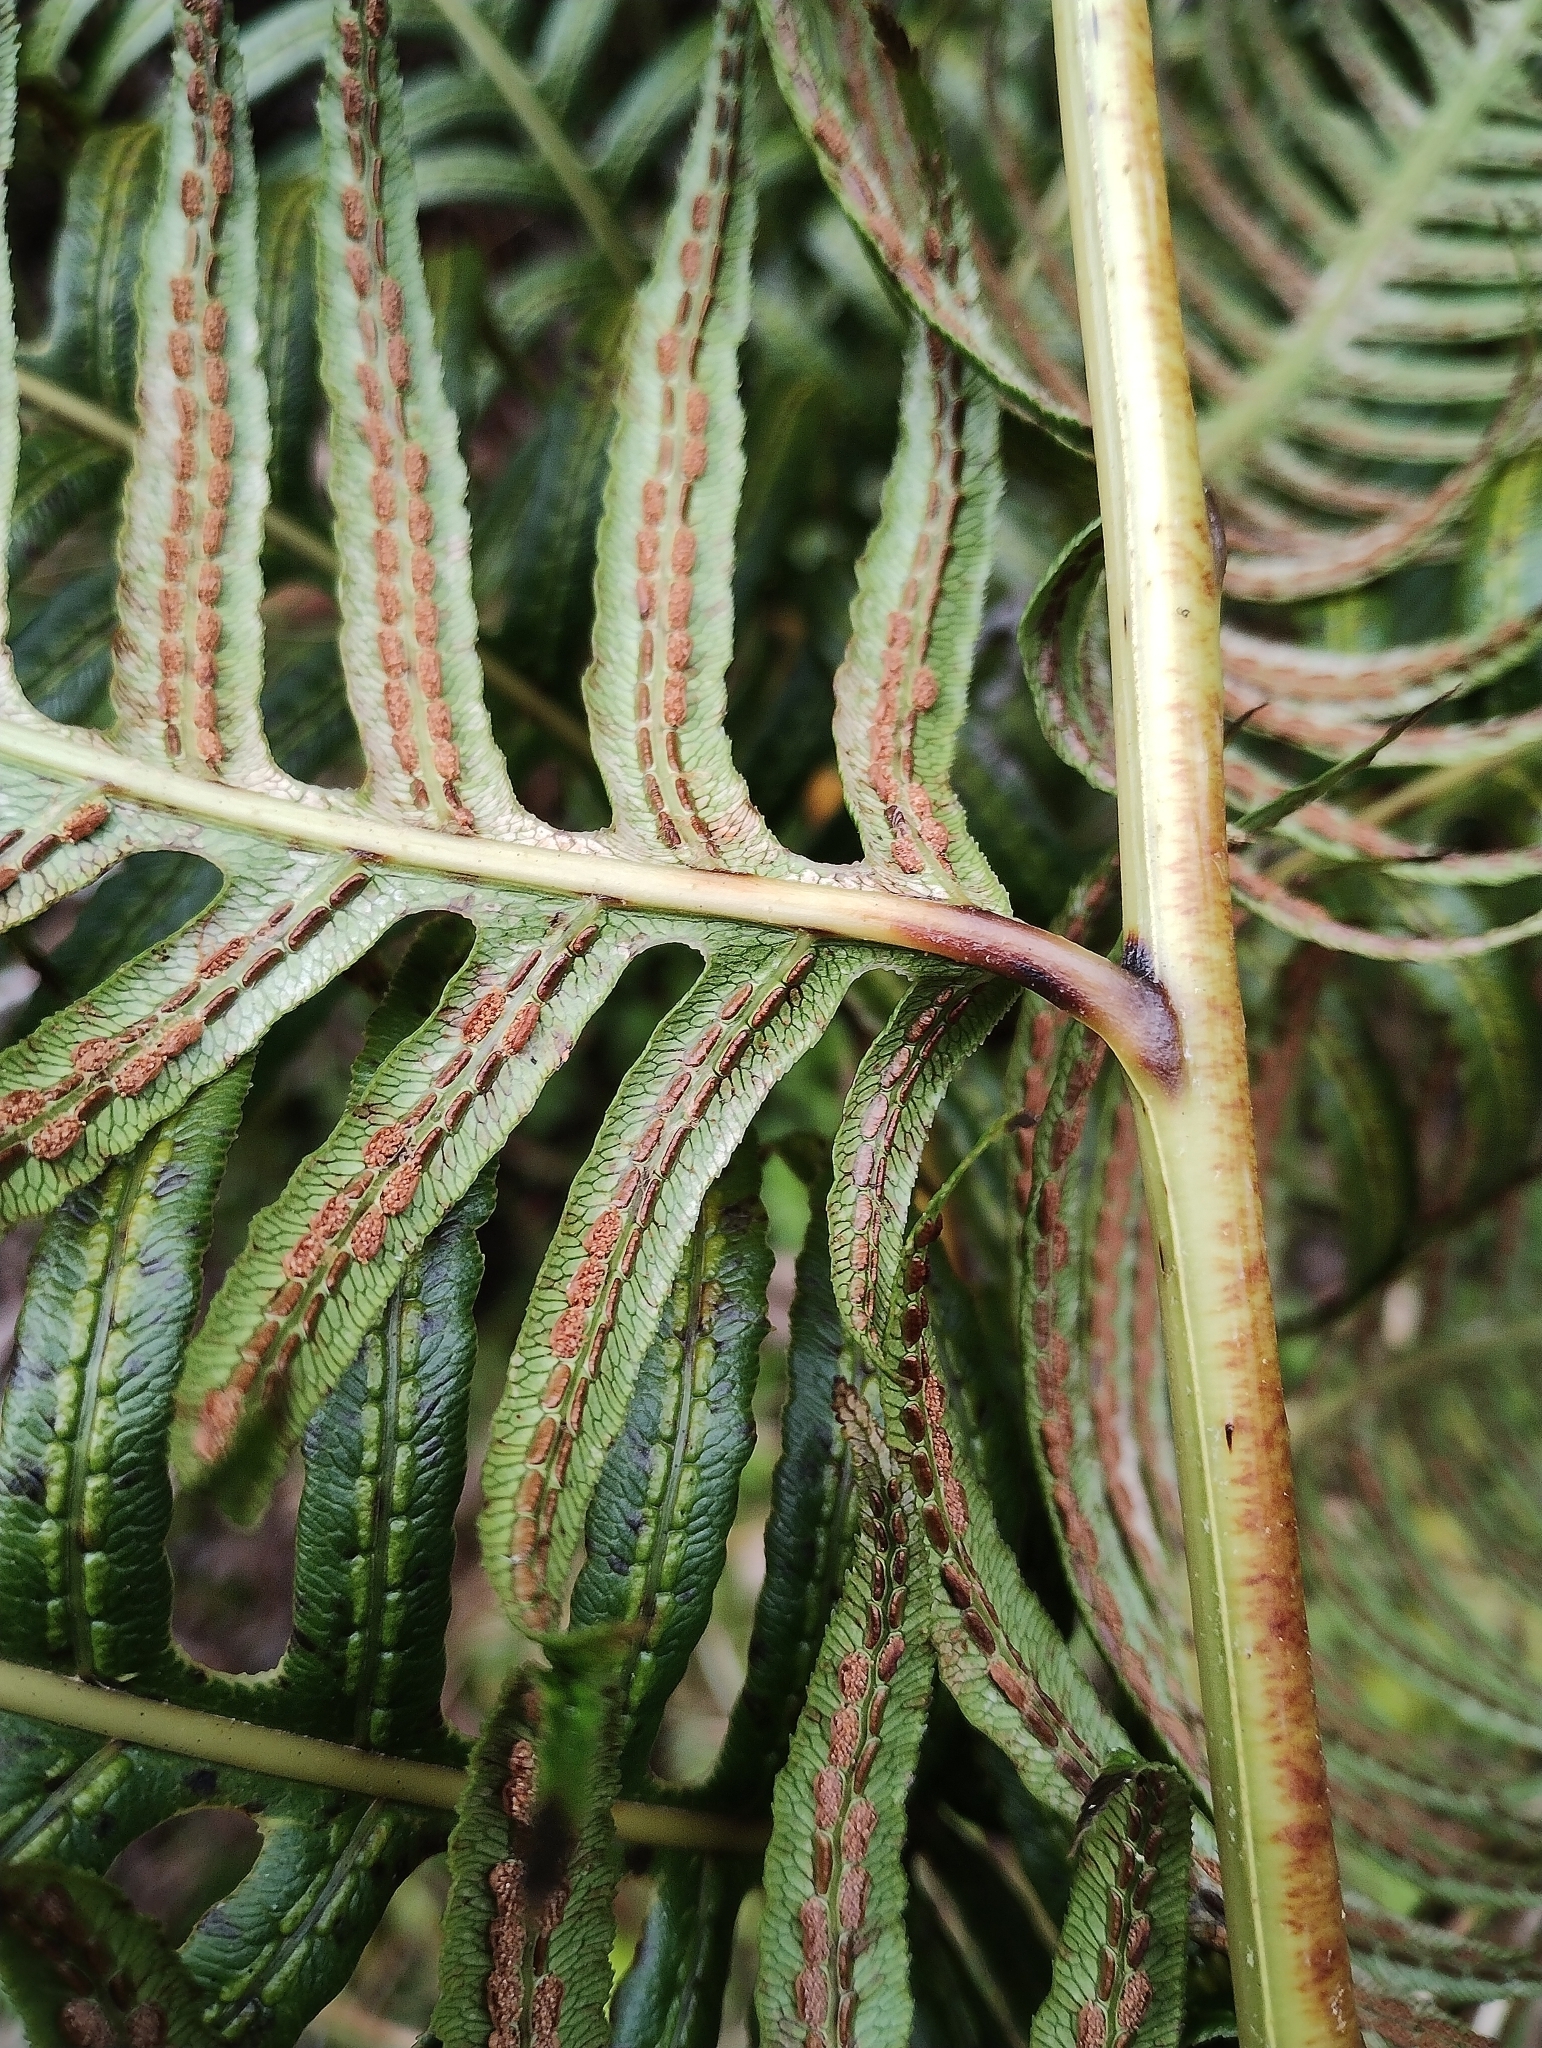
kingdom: Plantae
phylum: Tracheophyta
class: Polypodiopsida
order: Polypodiales
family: Blechnaceae
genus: Woodwardia
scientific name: Woodwardia radicans
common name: Rooting chainfern
